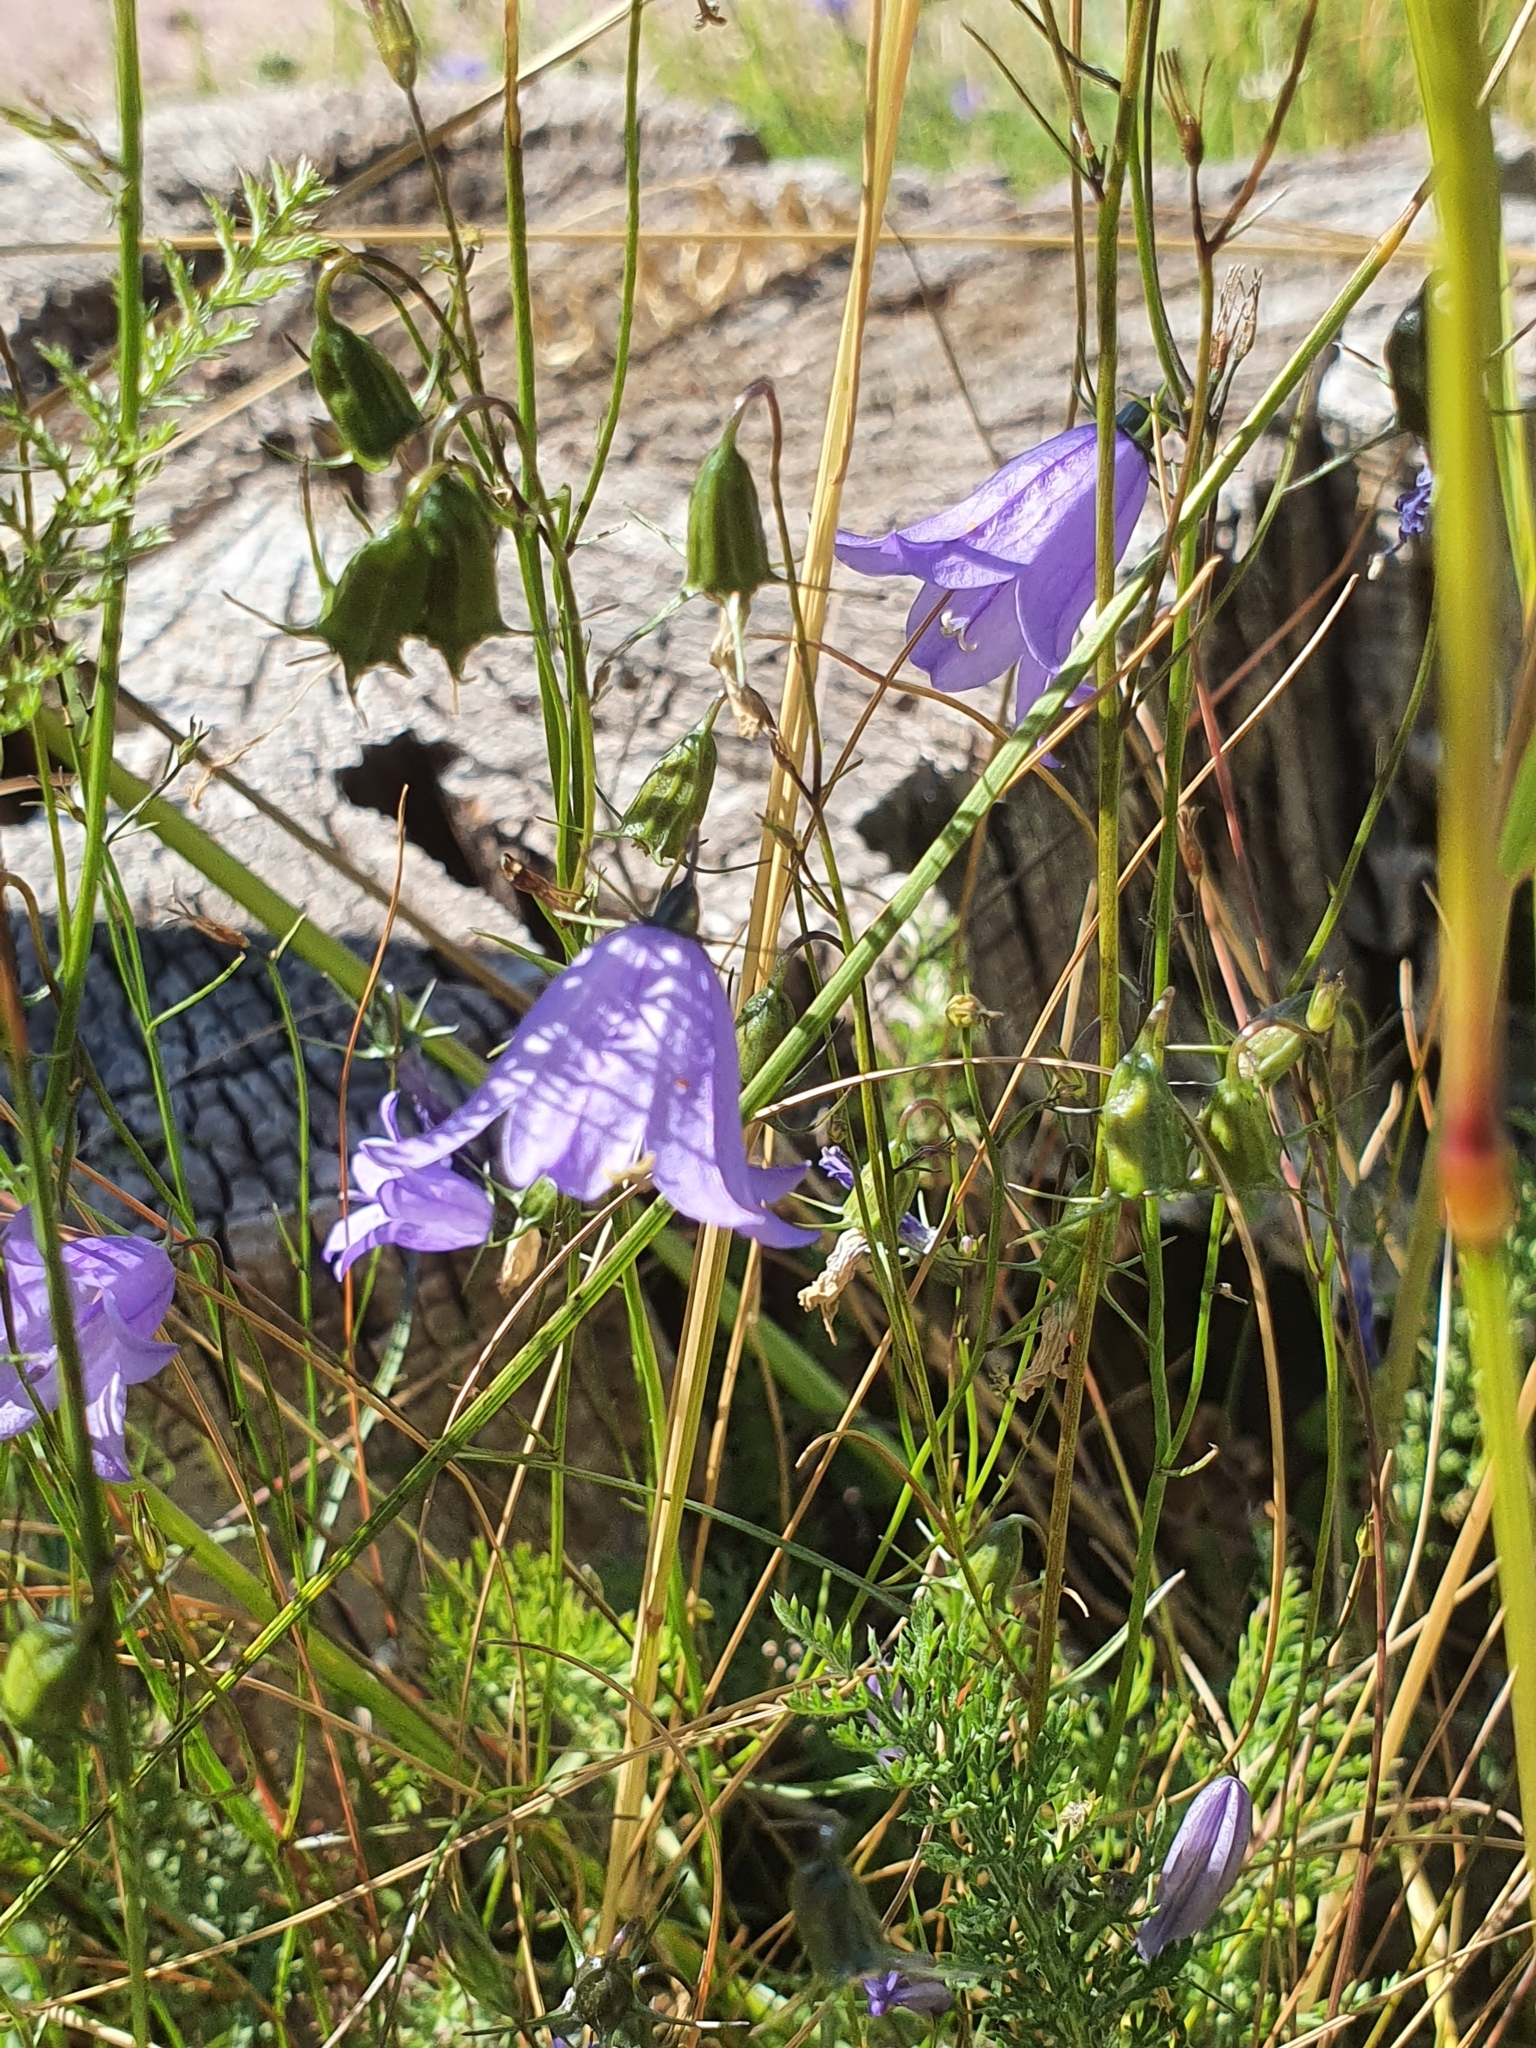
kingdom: Plantae
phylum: Tracheophyta
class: Magnoliopsida
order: Asterales
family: Campanulaceae
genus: Campanula
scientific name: Campanula rotundifolia
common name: Harebell
